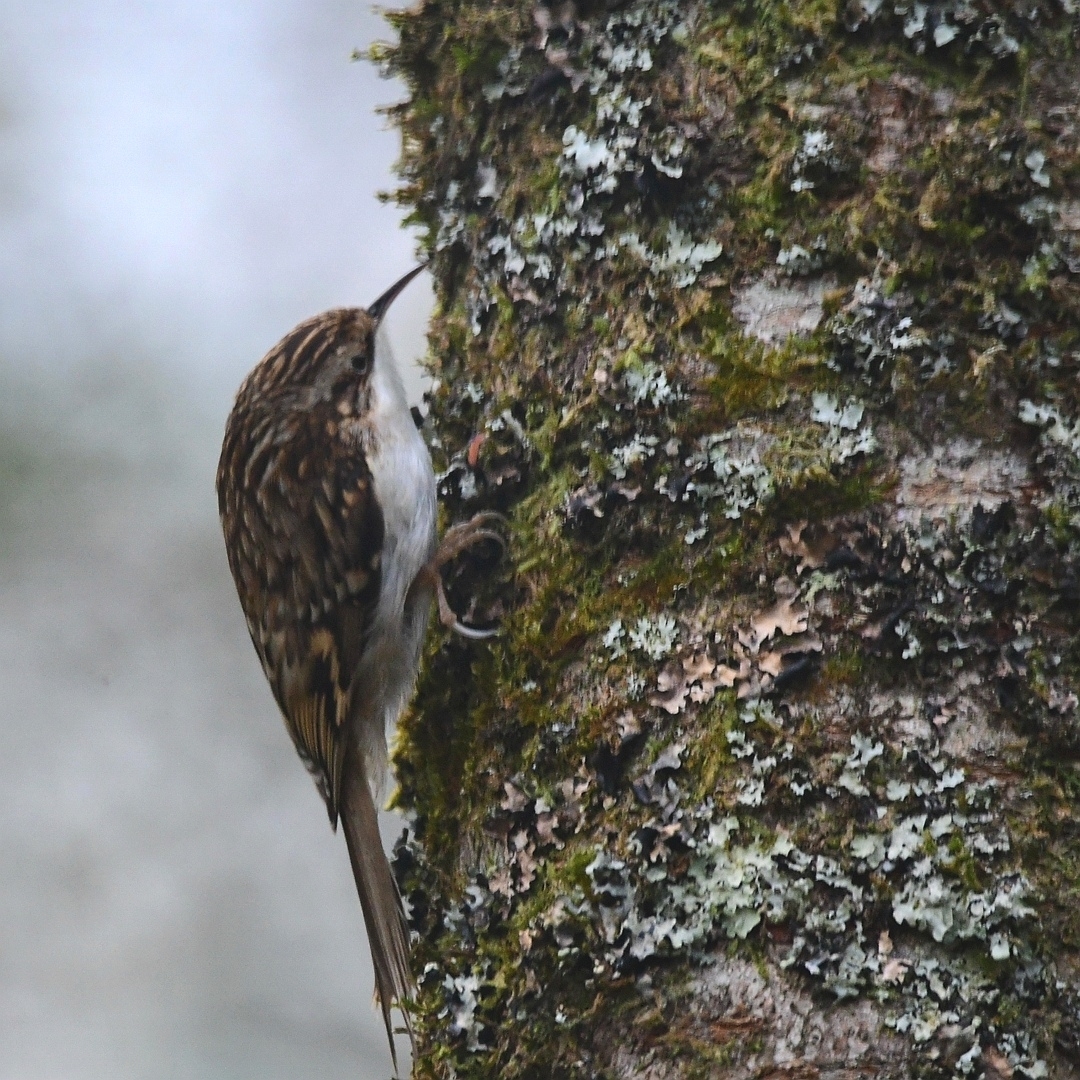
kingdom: Animalia
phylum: Chordata
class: Aves
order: Passeriformes
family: Certhiidae
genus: Certhia
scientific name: Certhia familiaris
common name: Eurasian treecreeper
